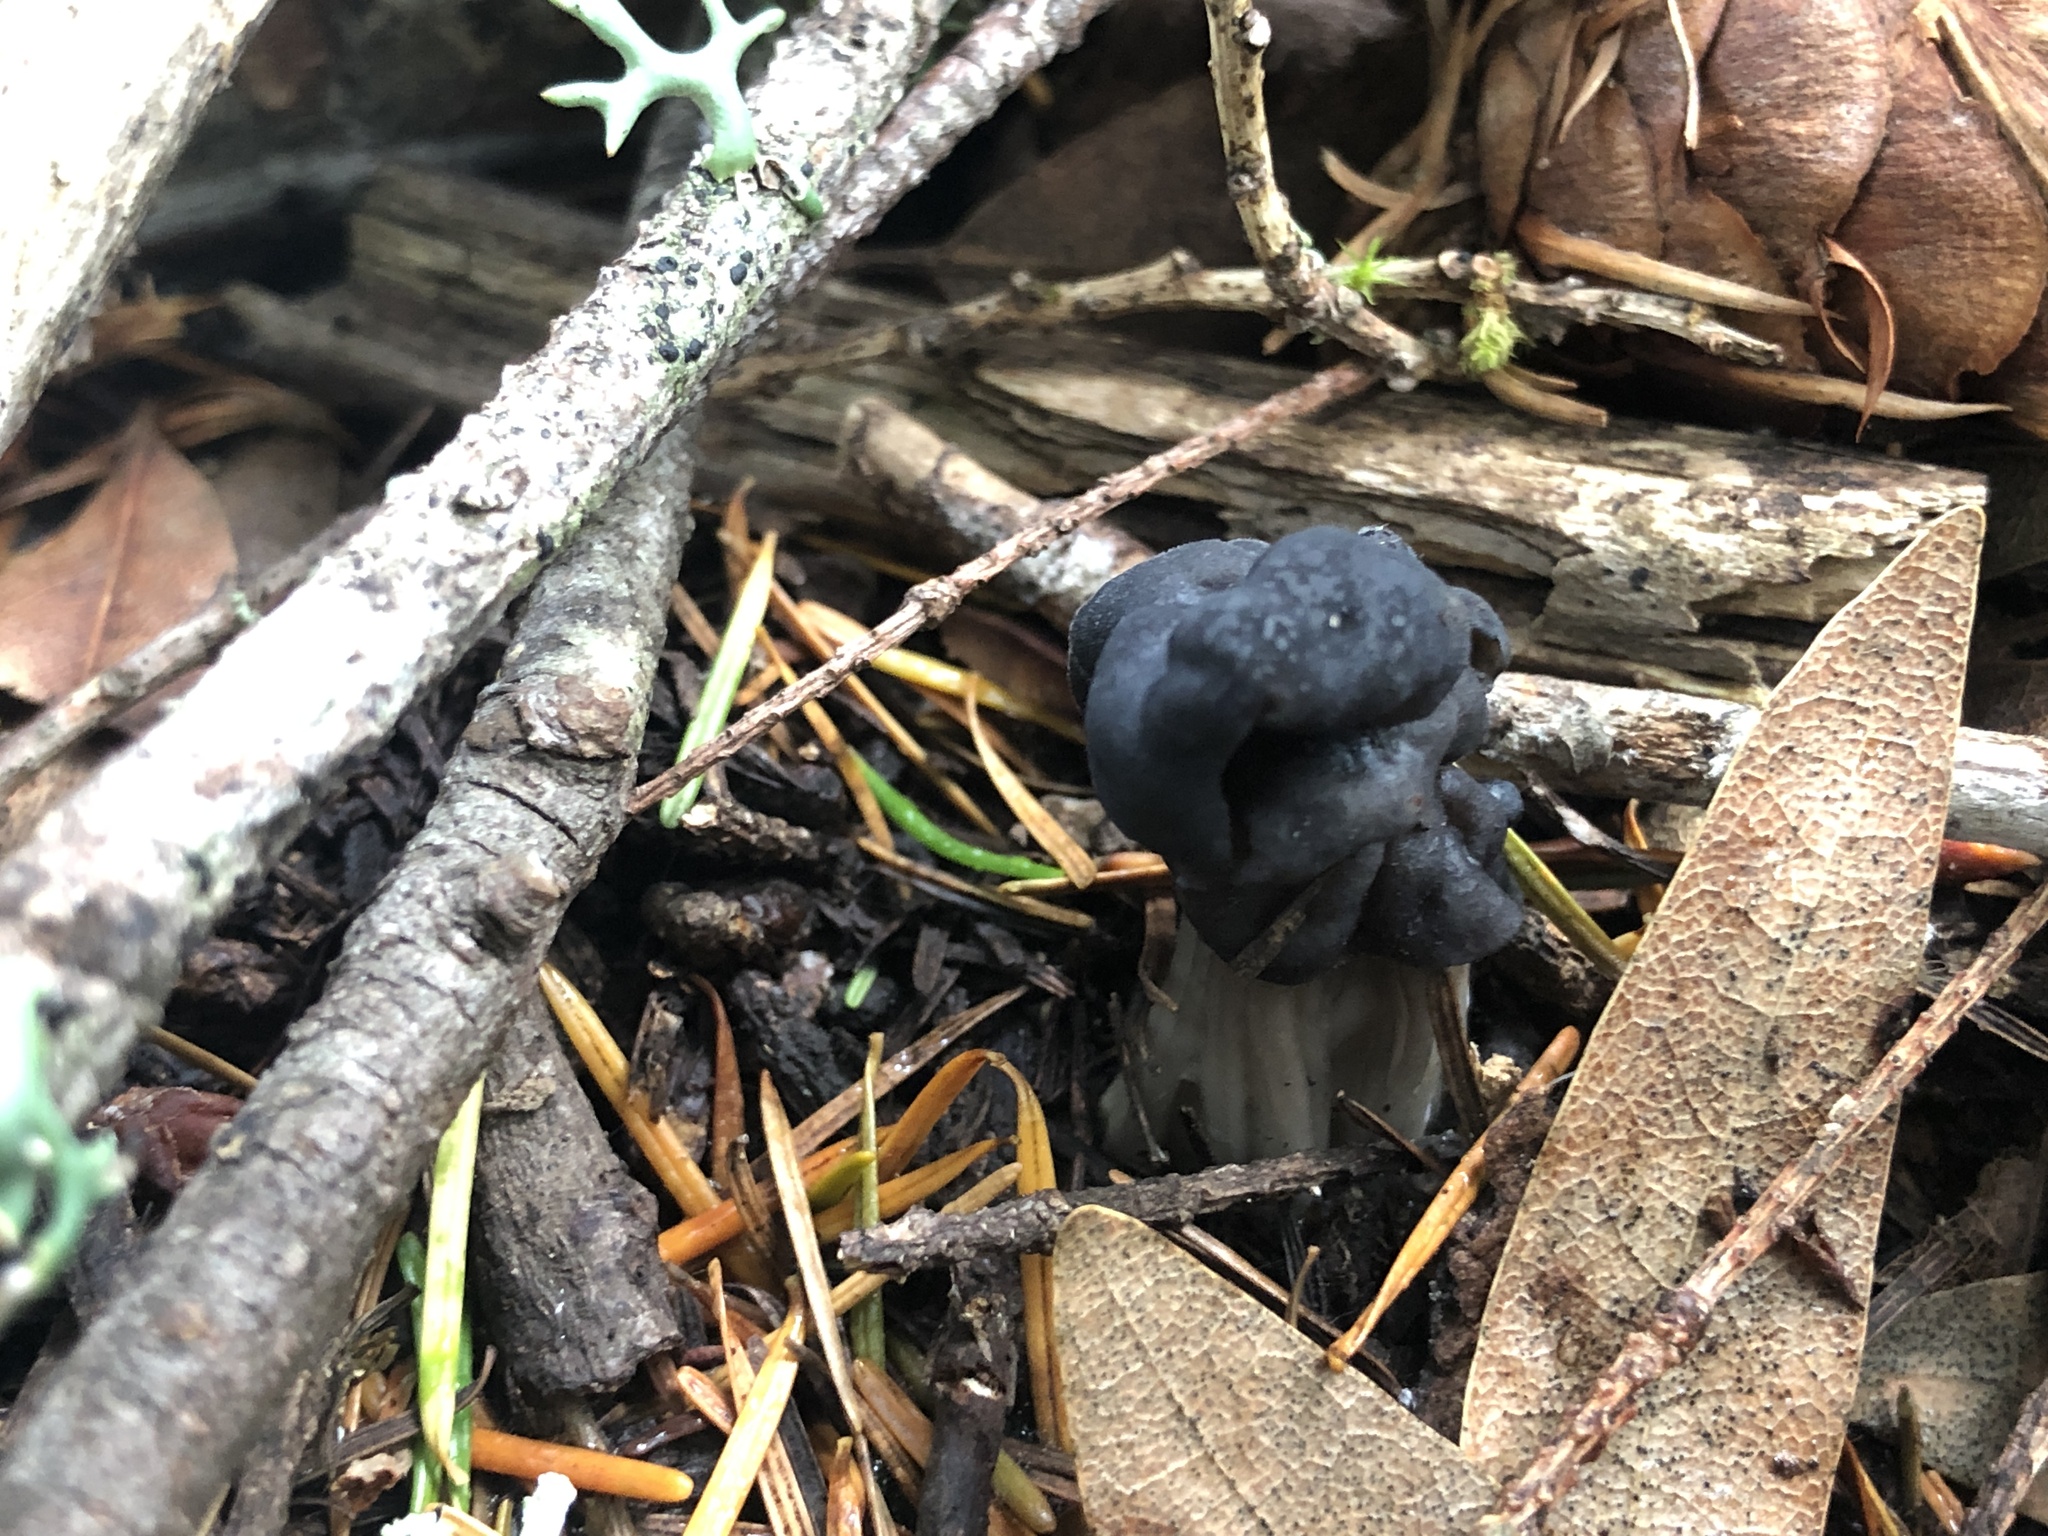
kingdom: Fungi
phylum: Ascomycota
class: Pezizomycetes
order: Pezizales
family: Helvellaceae
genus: Helvella
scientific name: Helvella vespertina
